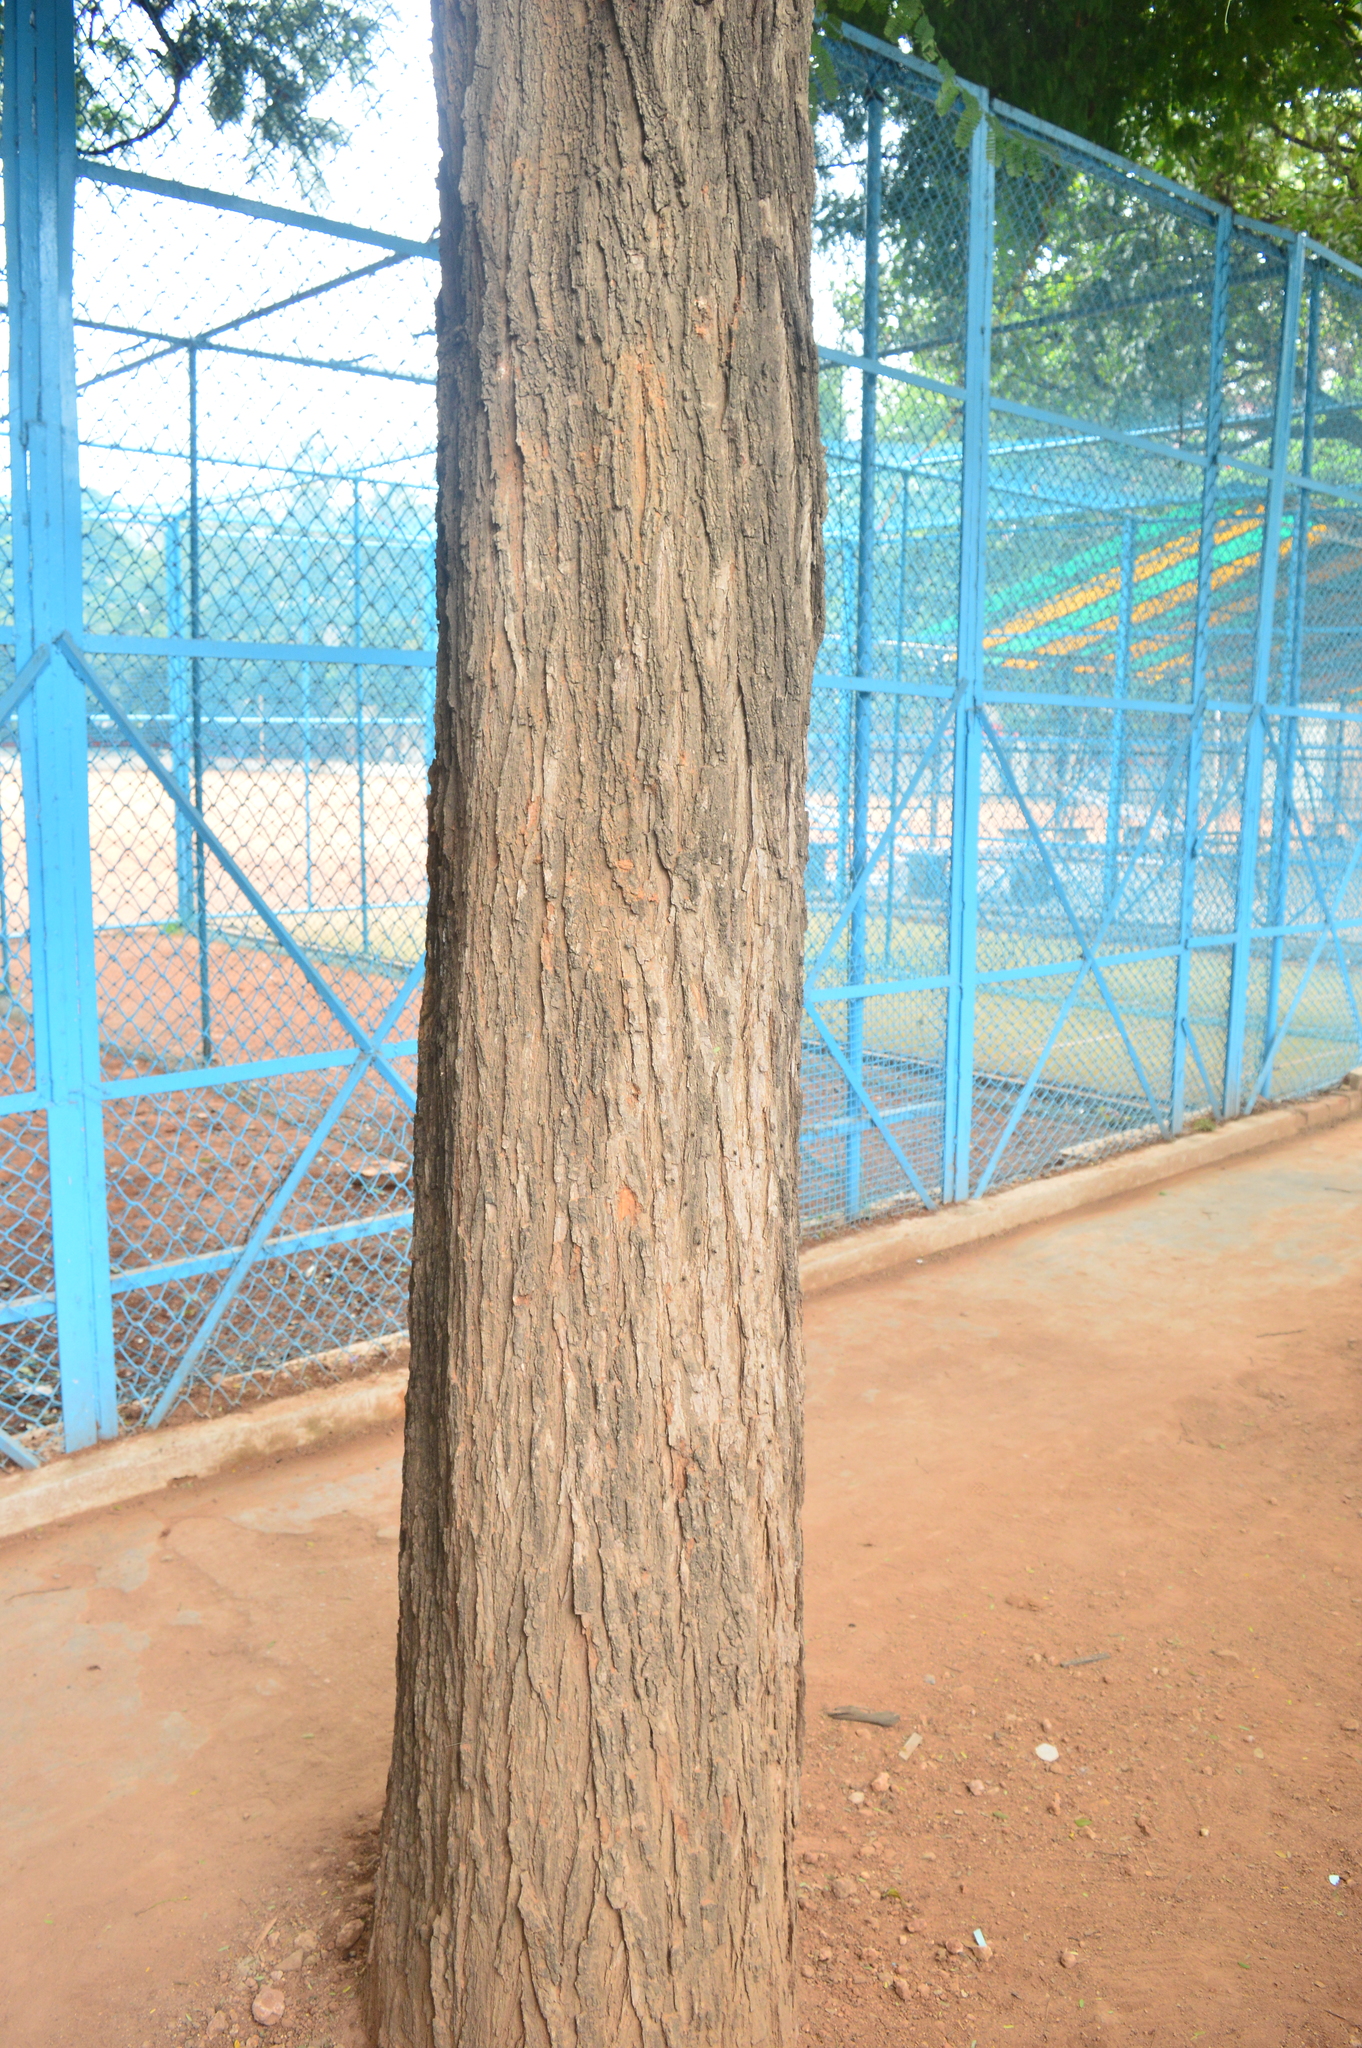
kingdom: Plantae
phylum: Tracheophyta
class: Magnoliopsida
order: Fabales
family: Fabaceae
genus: Tamarindus
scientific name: Tamarindus indica
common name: Tamarind
